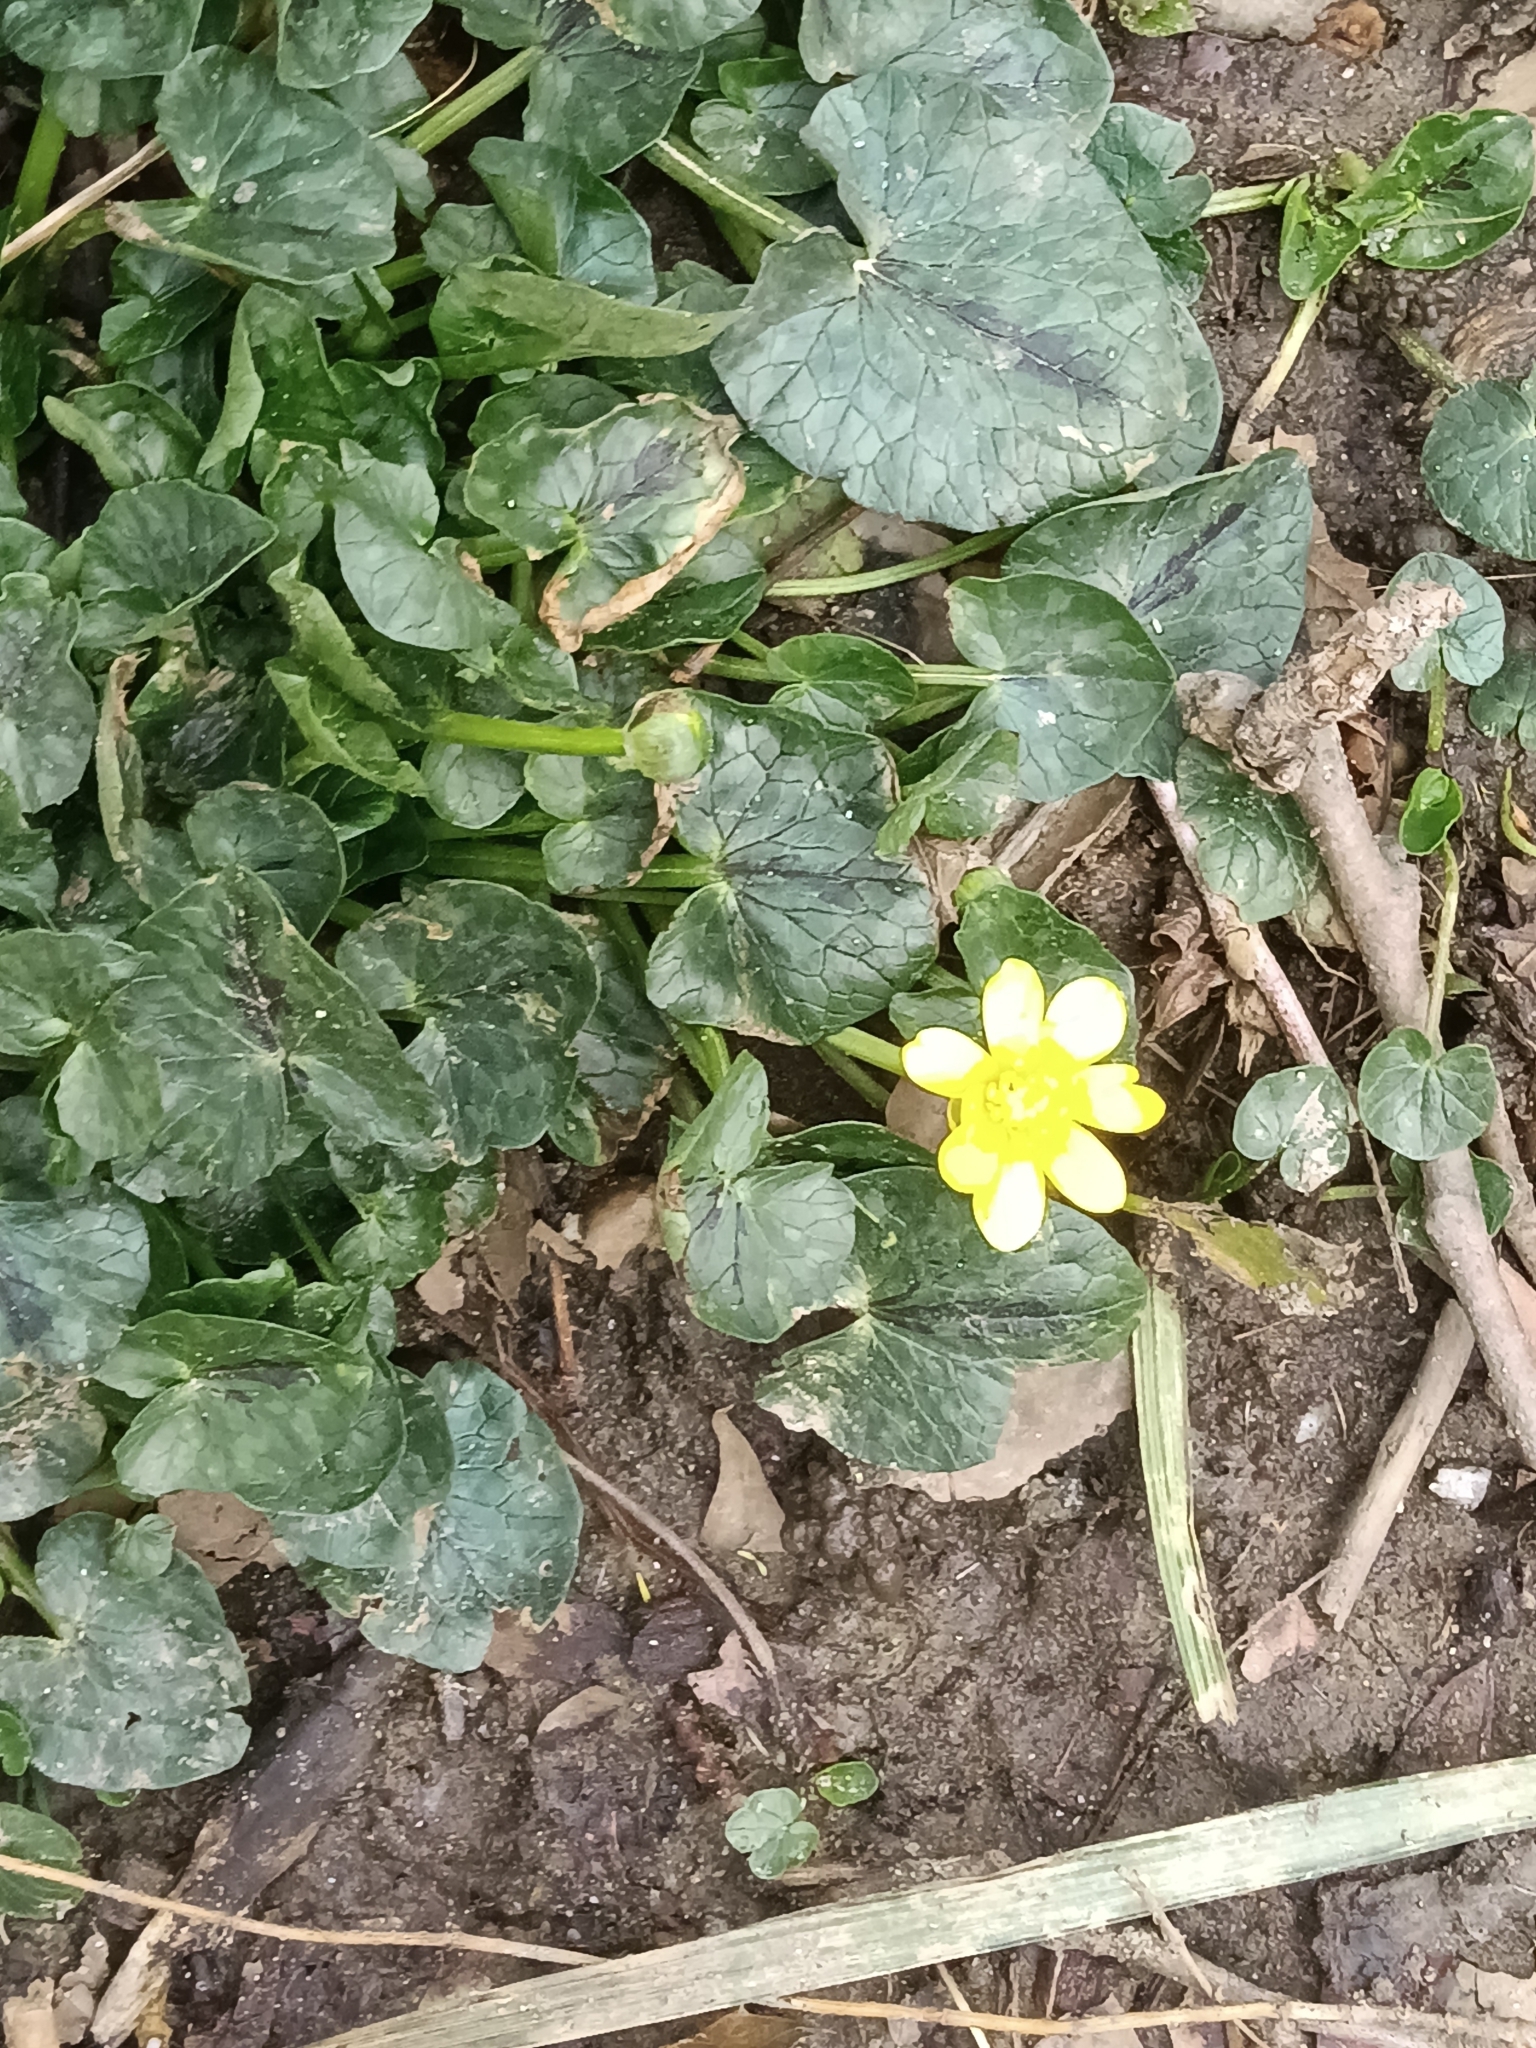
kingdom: Plantae
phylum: Tracheophyta
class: Magnoliopsida
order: Ranunculales
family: Ranunculaceae
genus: Ficaria
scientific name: Ficaria verna
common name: Lesser celandine
